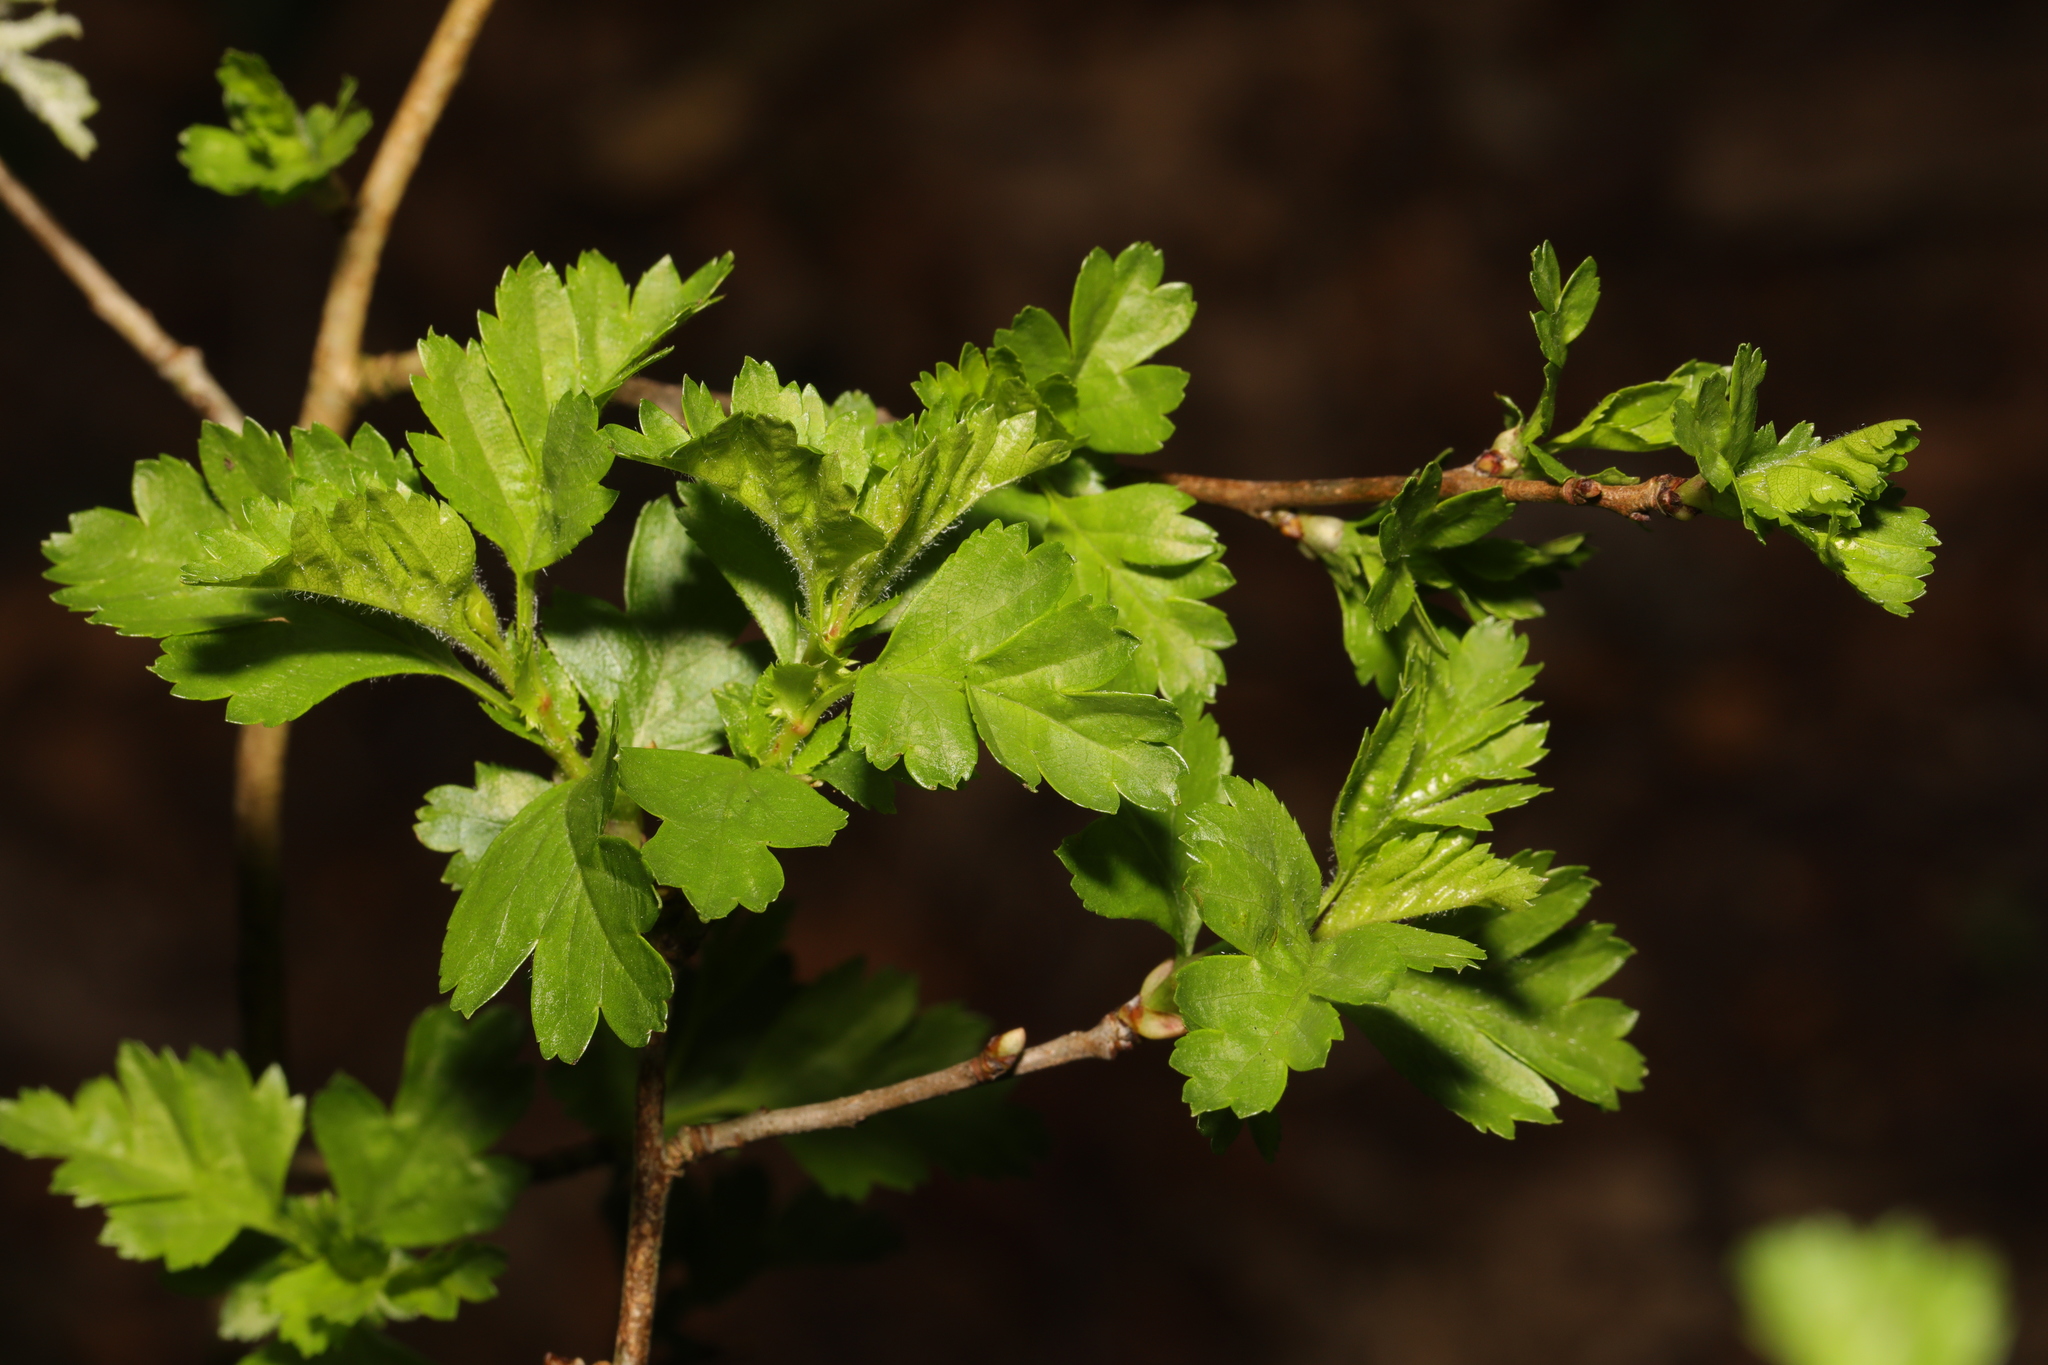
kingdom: Plantae
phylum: Tracheophyta
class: Magnoliopsida
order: Rosales
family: Rosaceae
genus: Crataegus
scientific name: Crataegus monogyna
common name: Hawthorn
